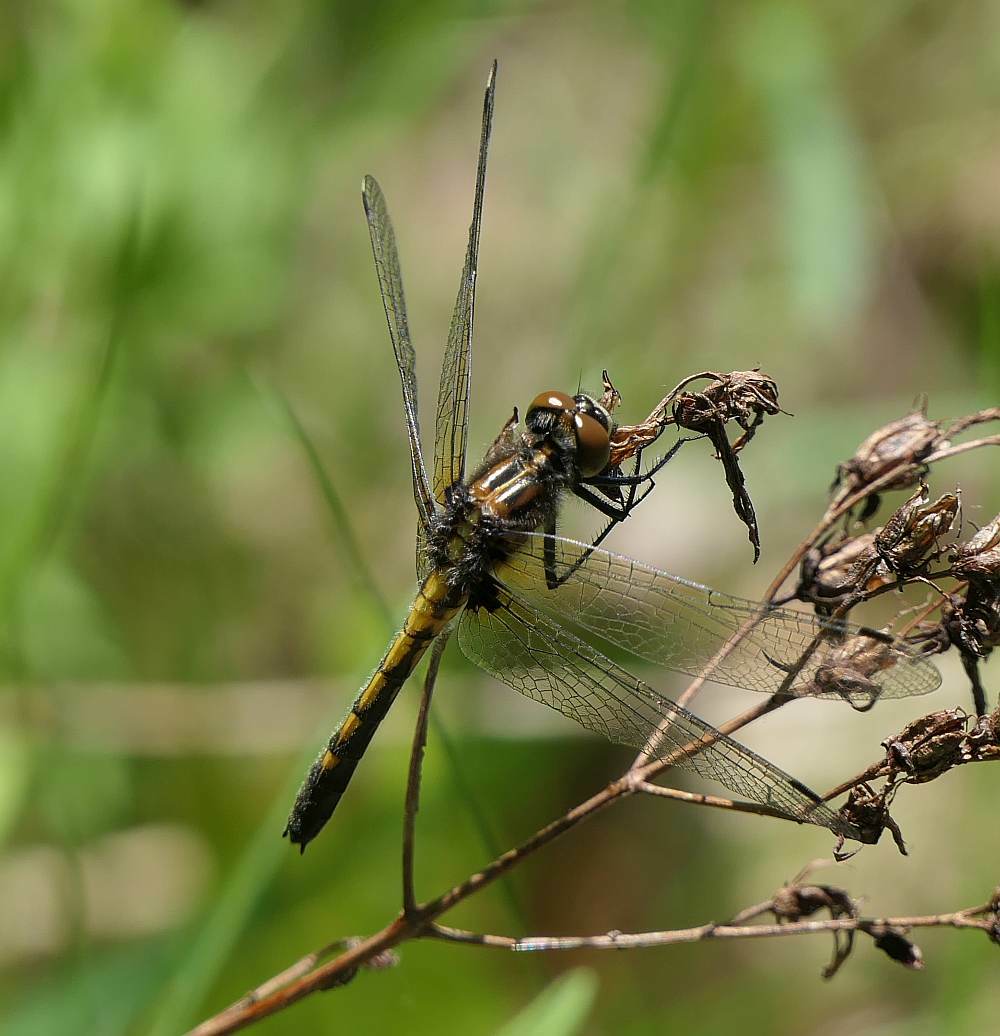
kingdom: Animalia
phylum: Arthropoda
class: Insecta
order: Odonata
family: Libellulidae
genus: Leucorrhinia
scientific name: Leucorrhinia intacta
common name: Dot-tailed whiteface
